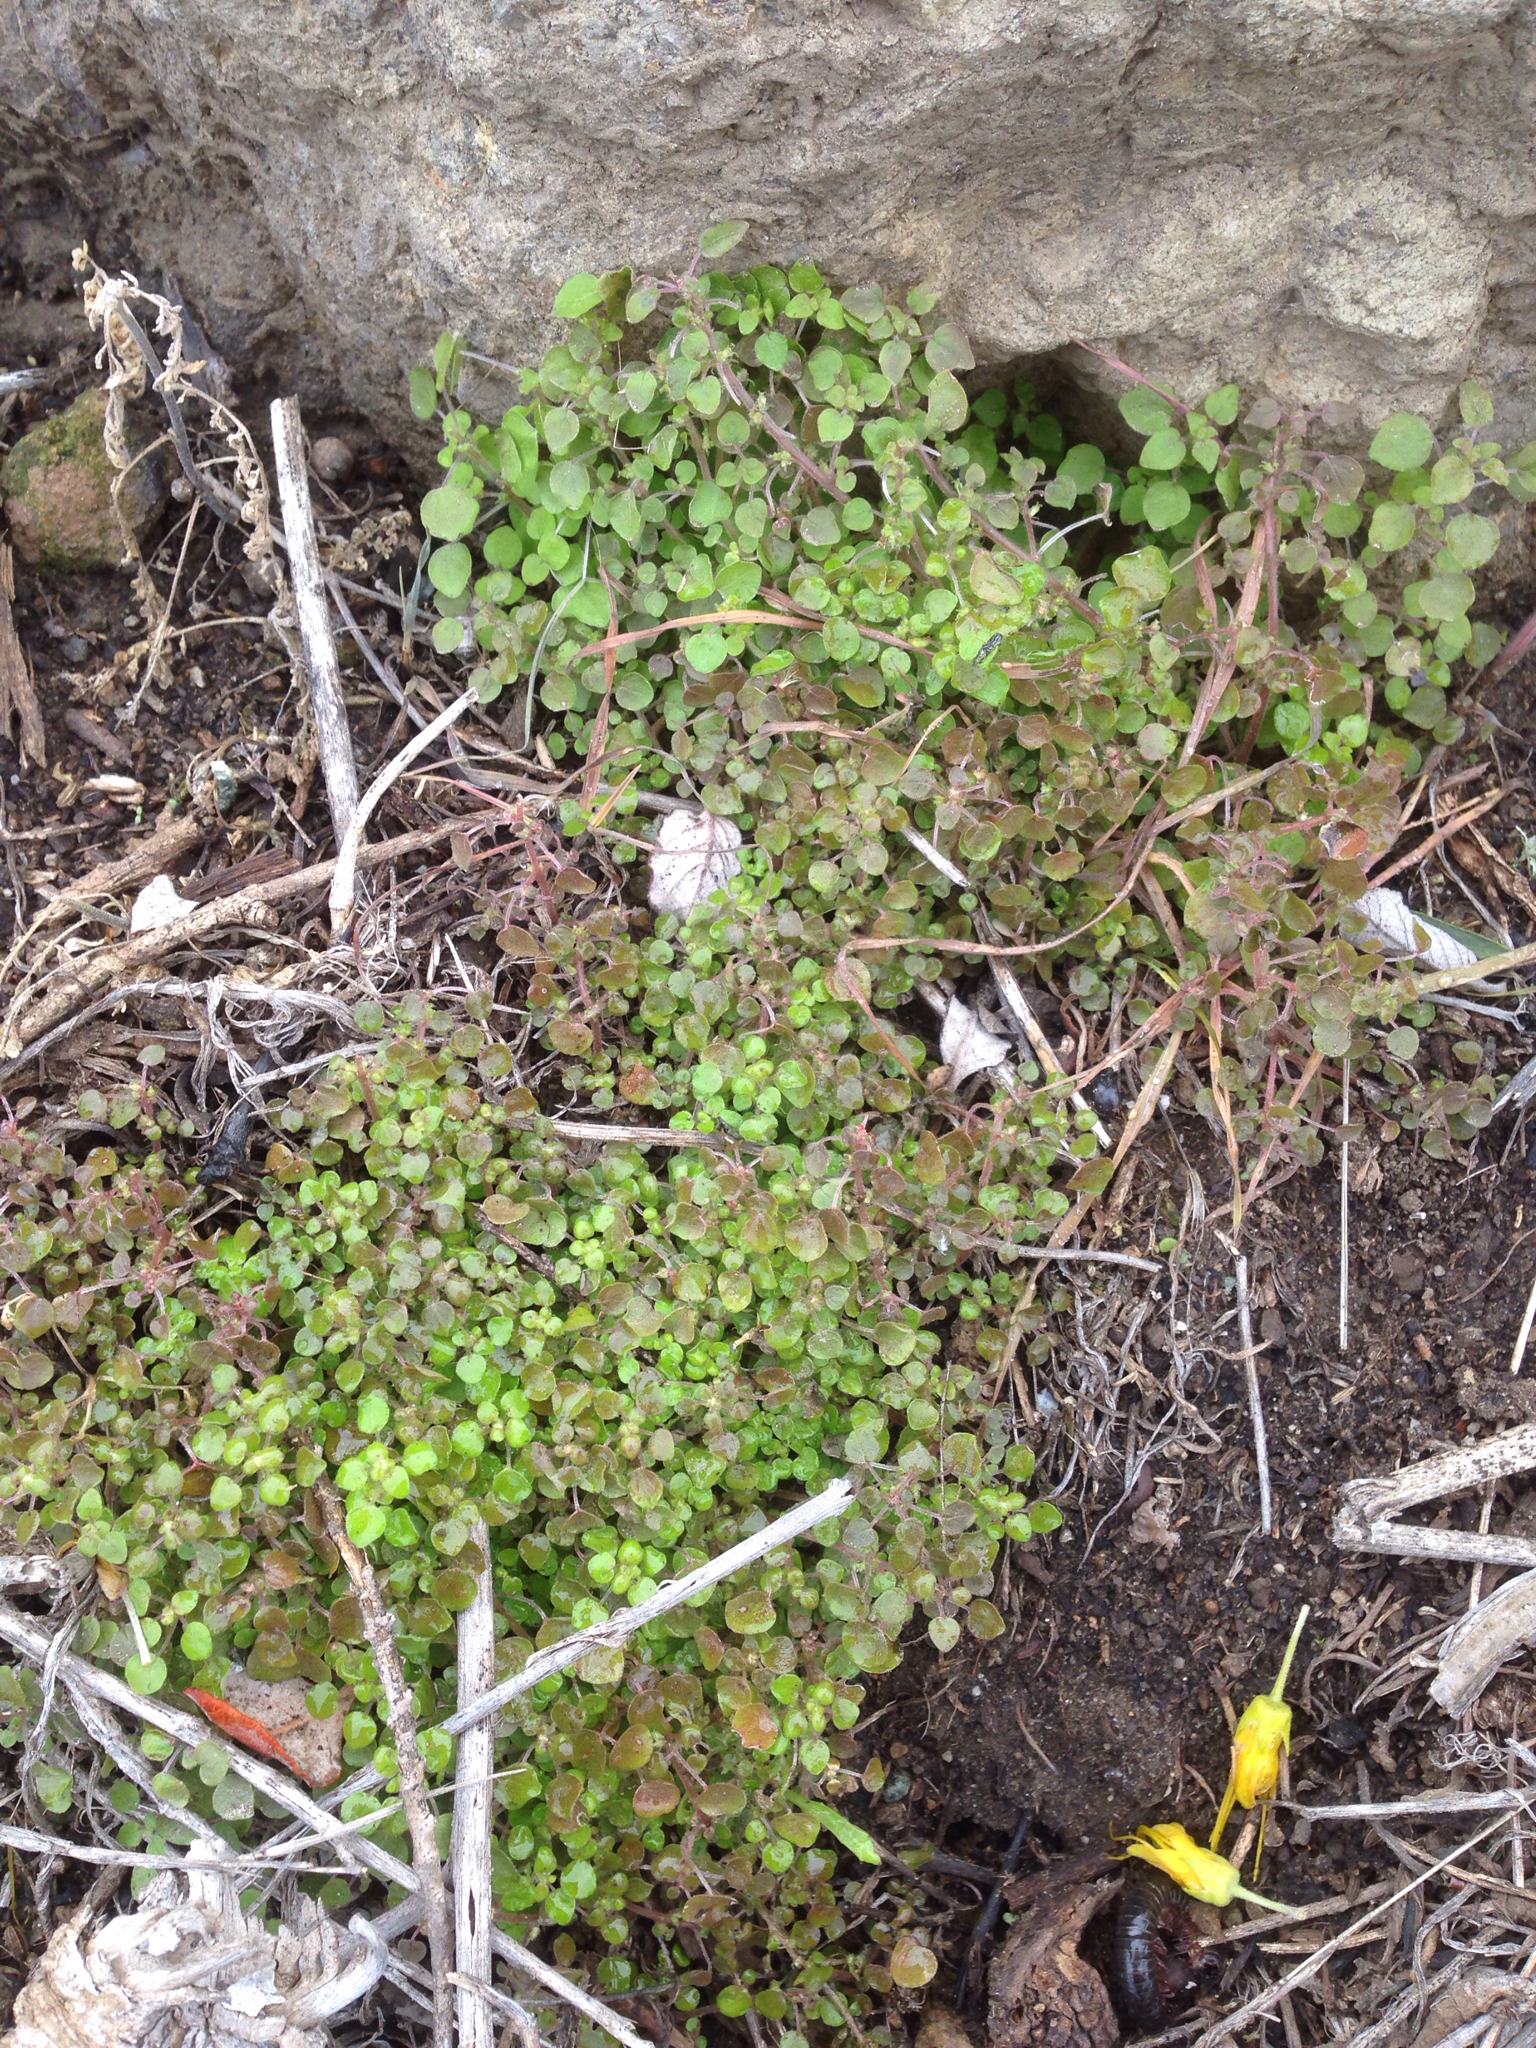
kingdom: Plantae
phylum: Tracheophyta
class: Magnoliopsida
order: Rosales
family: Urticaceae
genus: Parietaria
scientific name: Parietaria hespera
